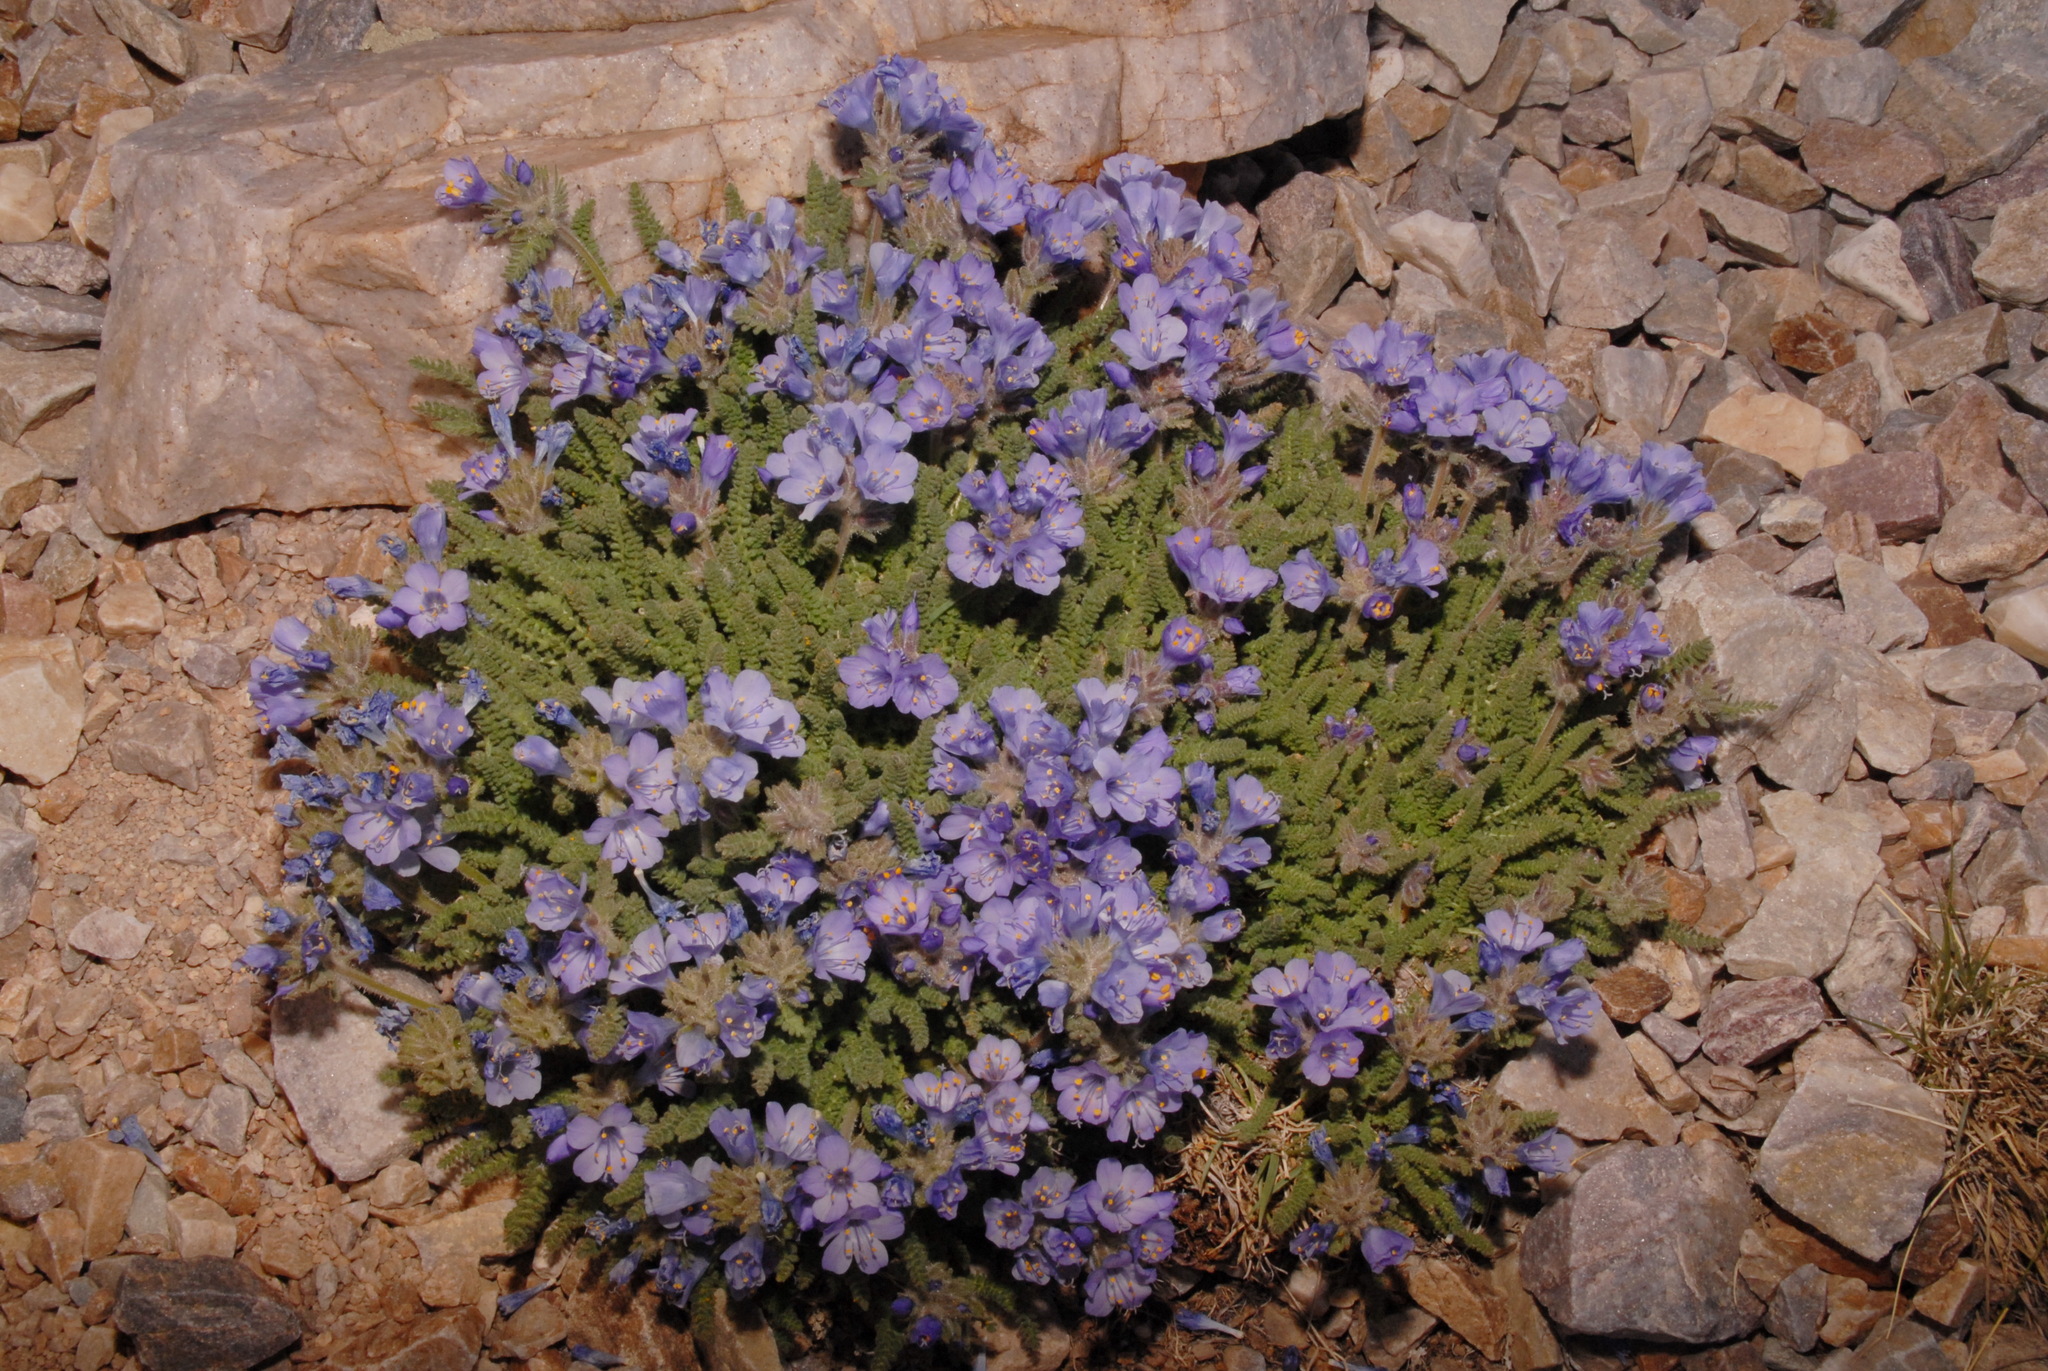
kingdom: Plantae
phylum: Tracheophyta
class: Magnoliopsida
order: Ericales
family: Polemoniaceae
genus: Polemonium
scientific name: Polemonium viscosum
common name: Skunk jacob's-ladder
